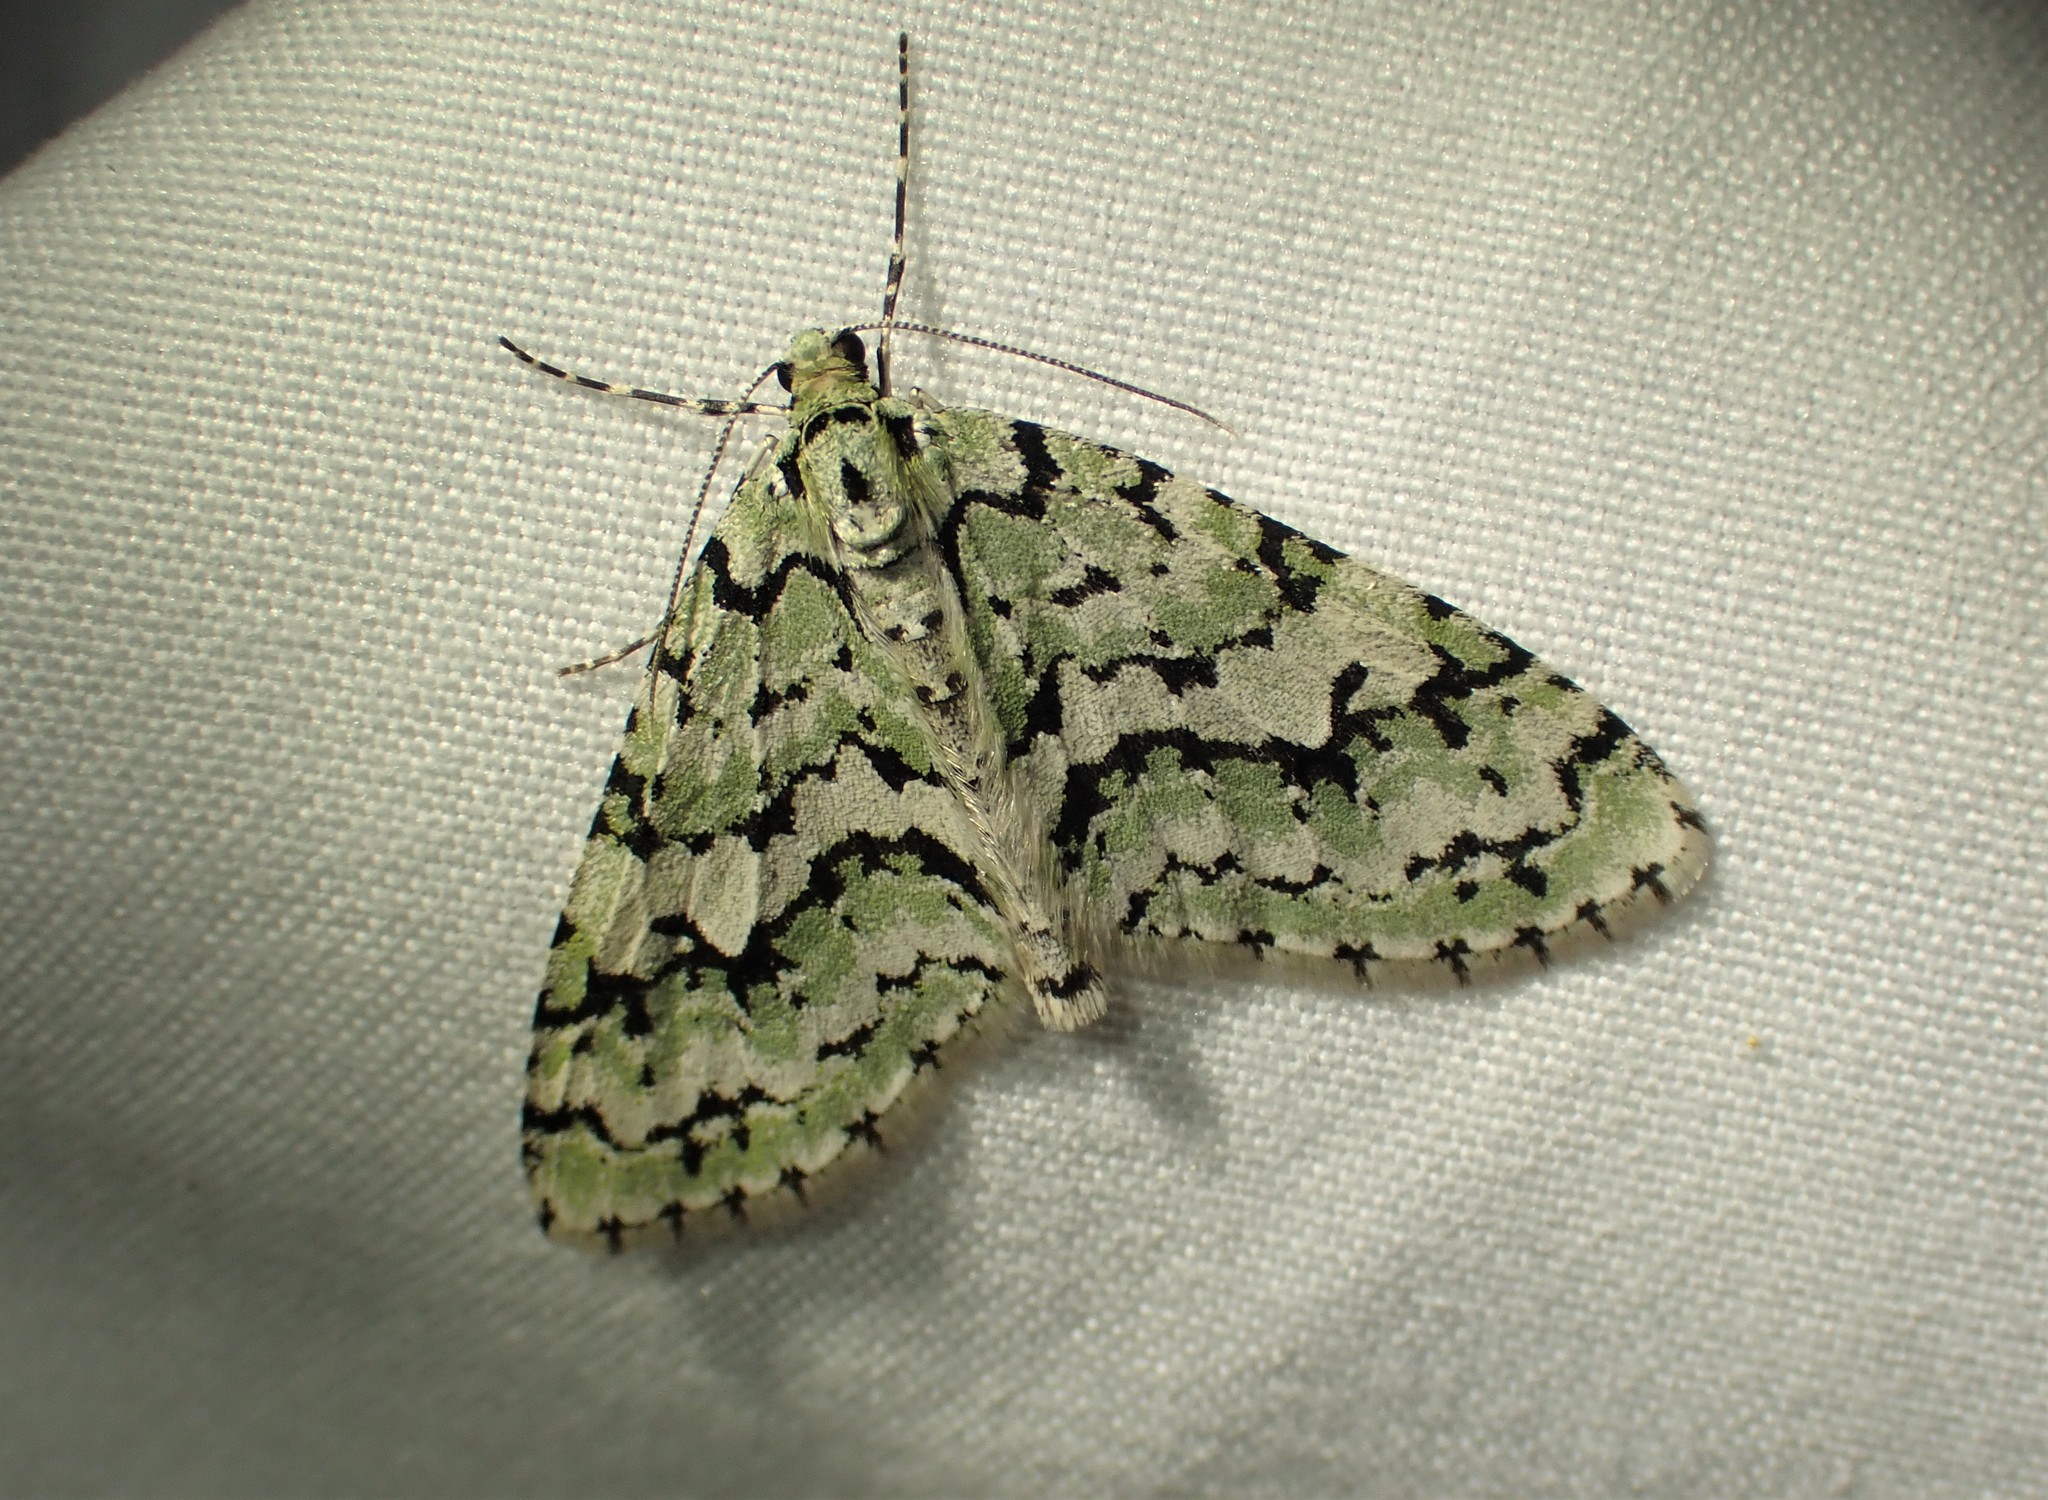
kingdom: Animalia
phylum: Arthropoda
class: Insecta
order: Lepidoptera
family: Geometridae
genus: Cladara
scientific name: Cladara atroliturata
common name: Scribbler
